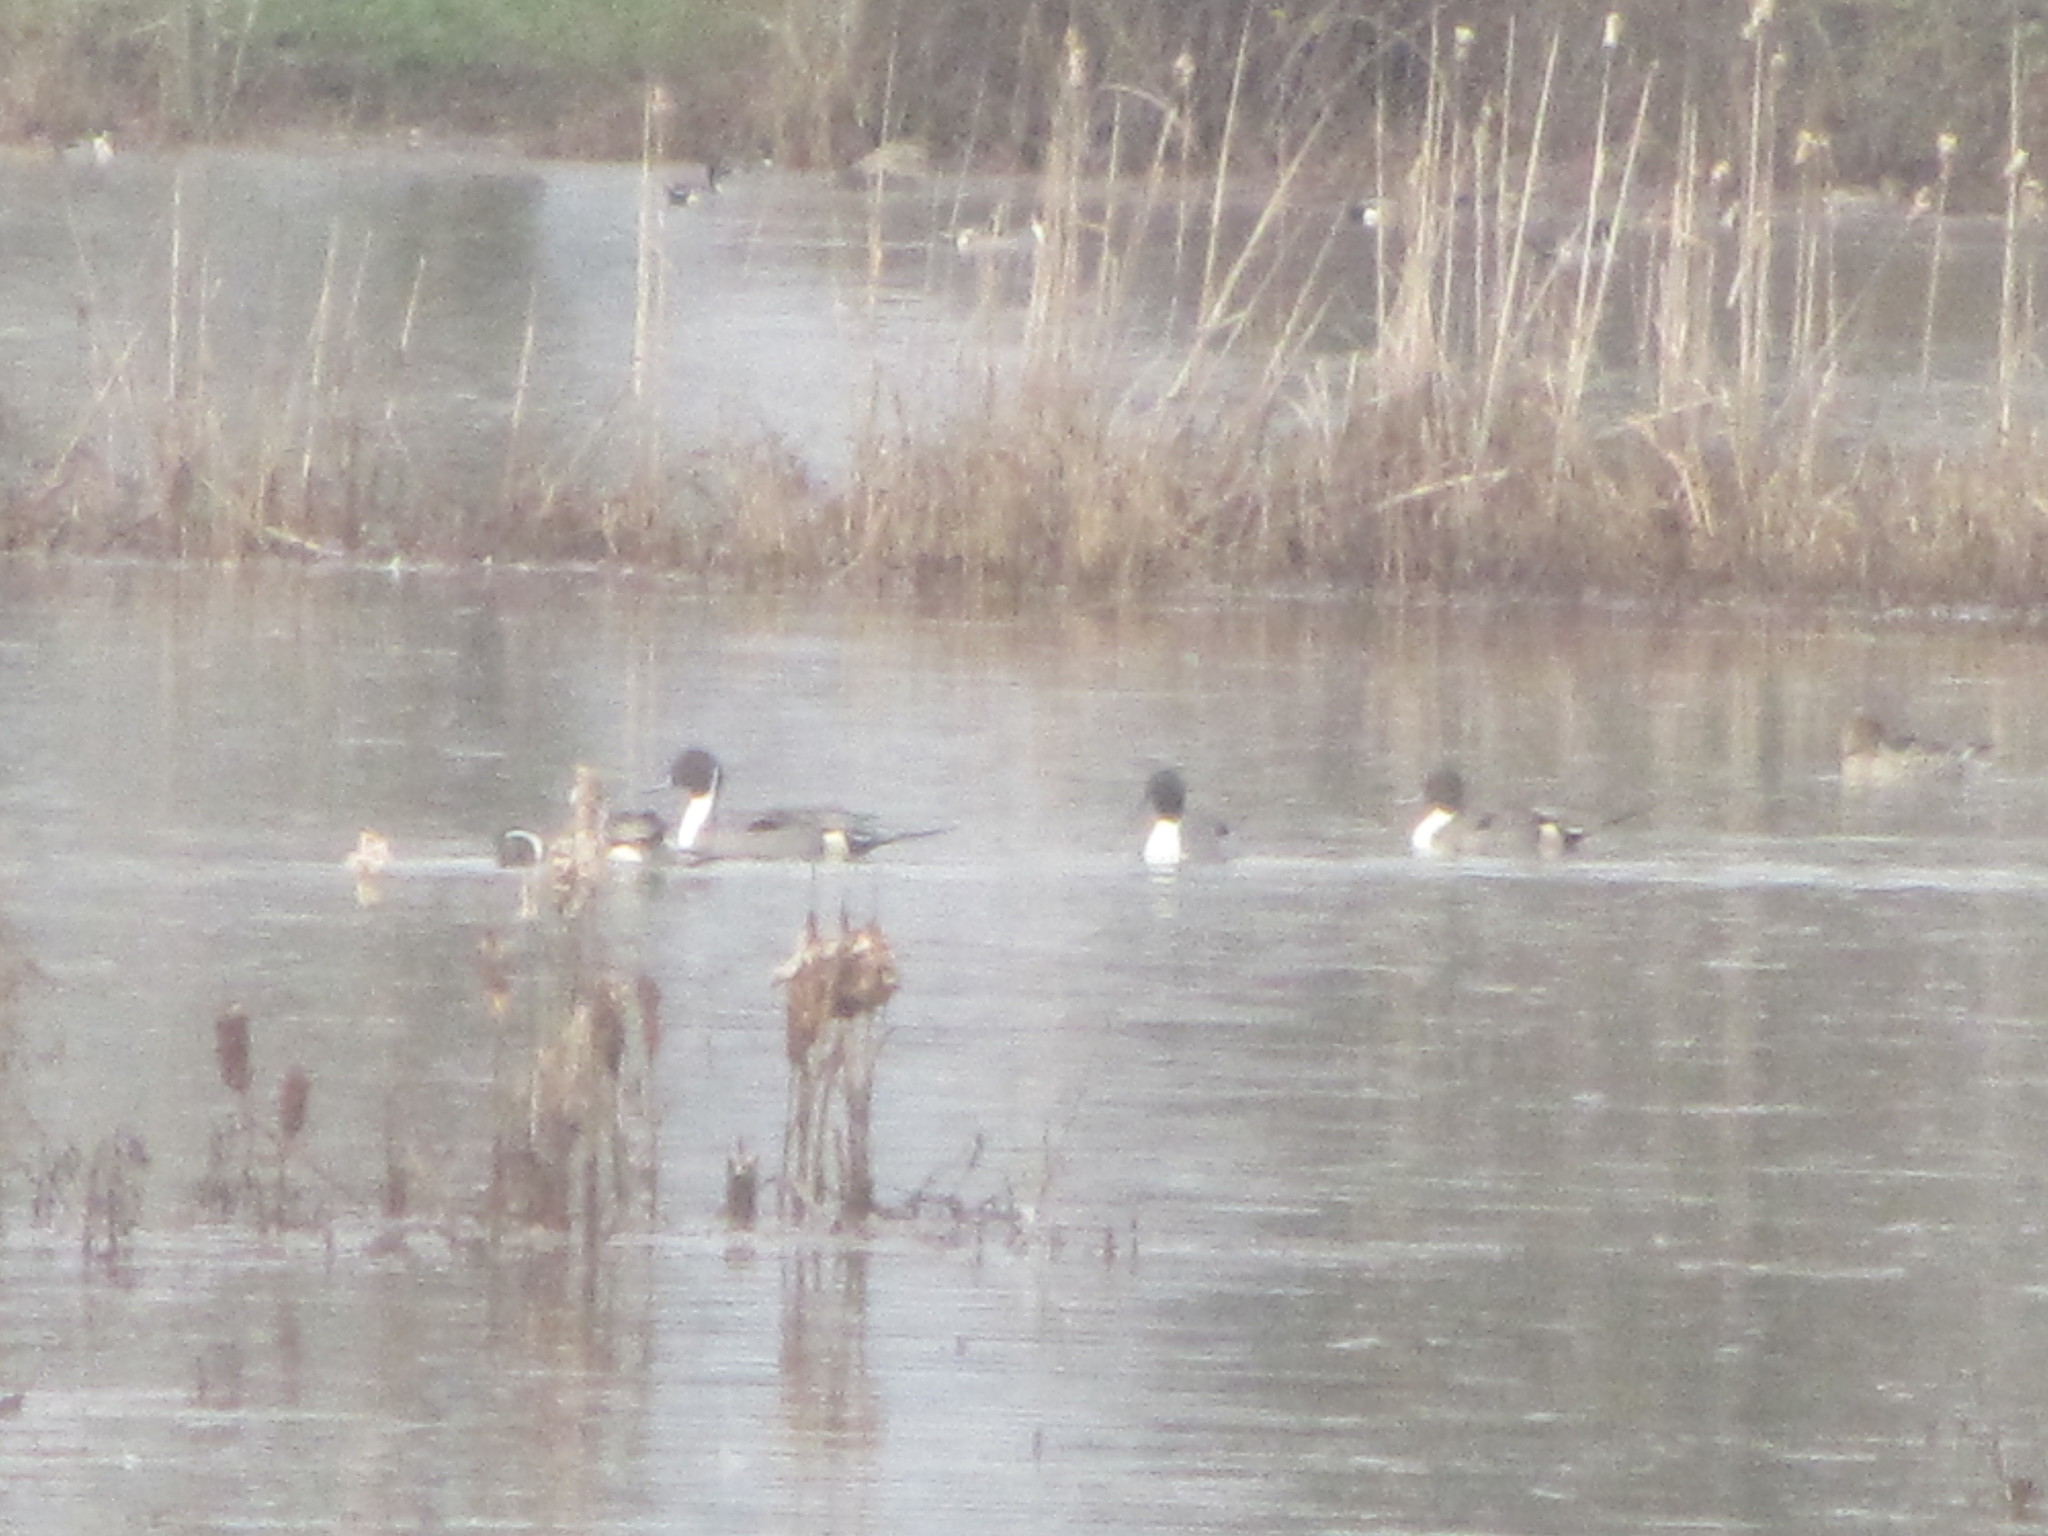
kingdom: Animalia
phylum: Chordata
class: Aves
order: Anseriformes
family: Anatidae
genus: Anas
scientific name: Anas acuta
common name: Northern pintail
